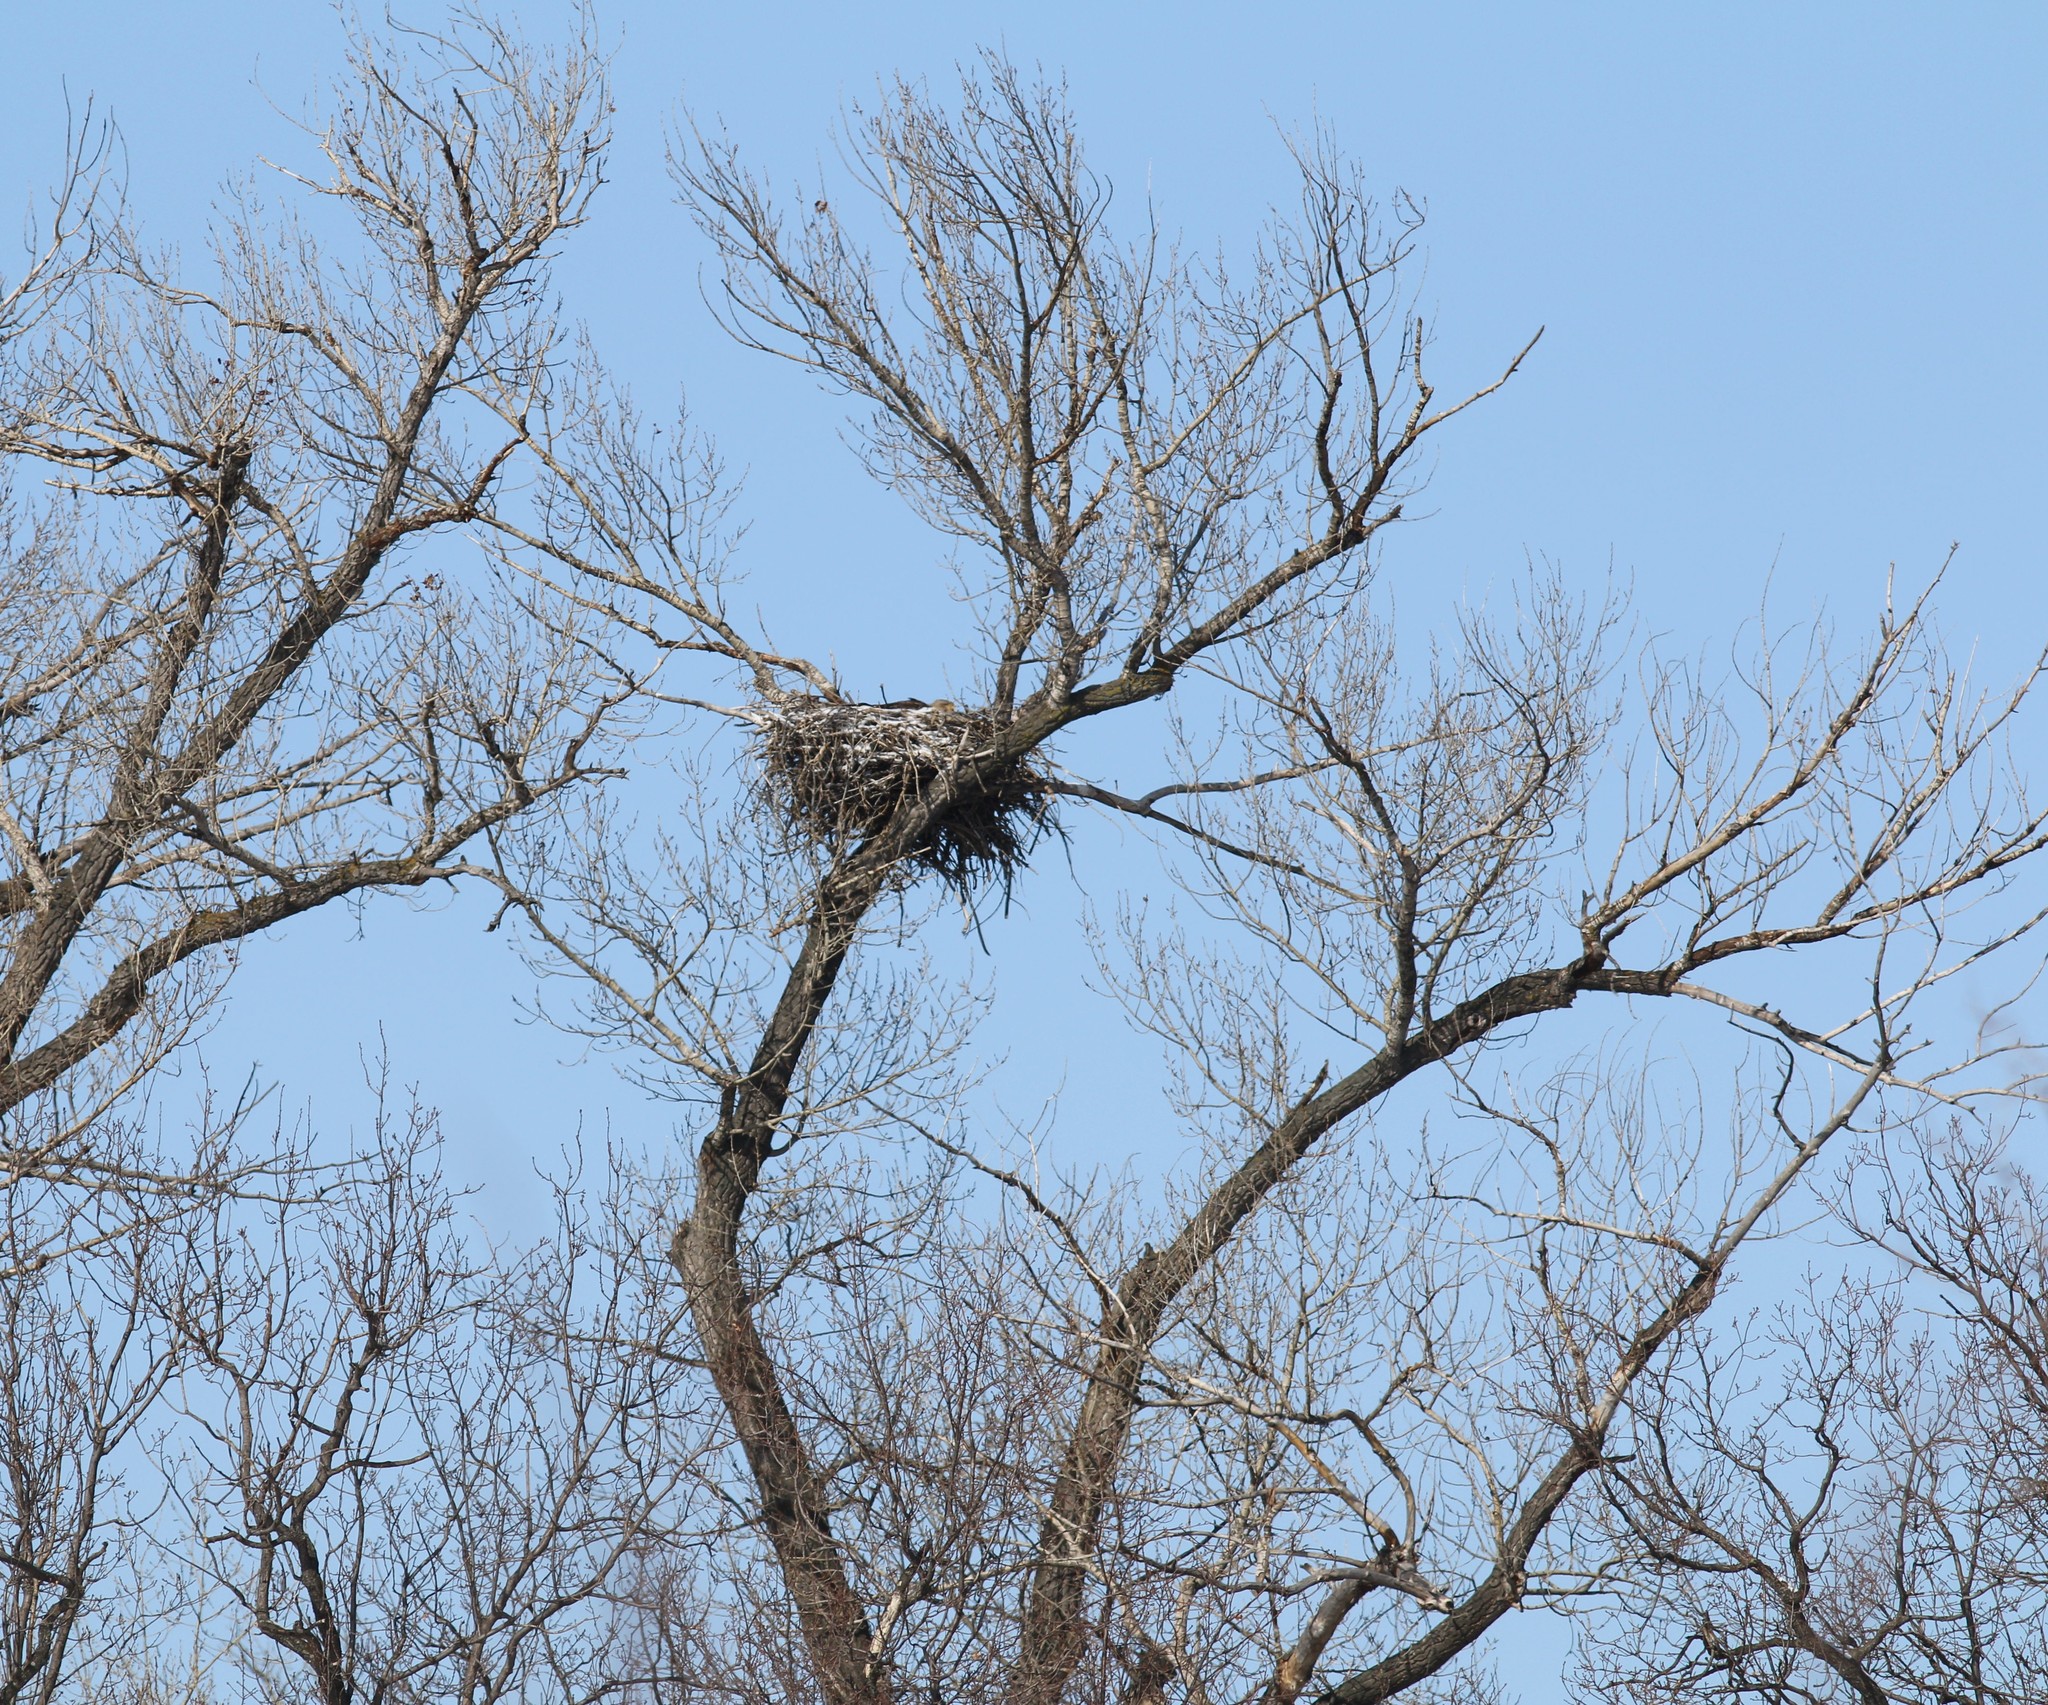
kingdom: Animalia
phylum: Chordata
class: Aves
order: Accipitriformes
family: Accipitridae
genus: Haliaeetus
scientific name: Haliaeetus albicilla
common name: White-tailed eagle
